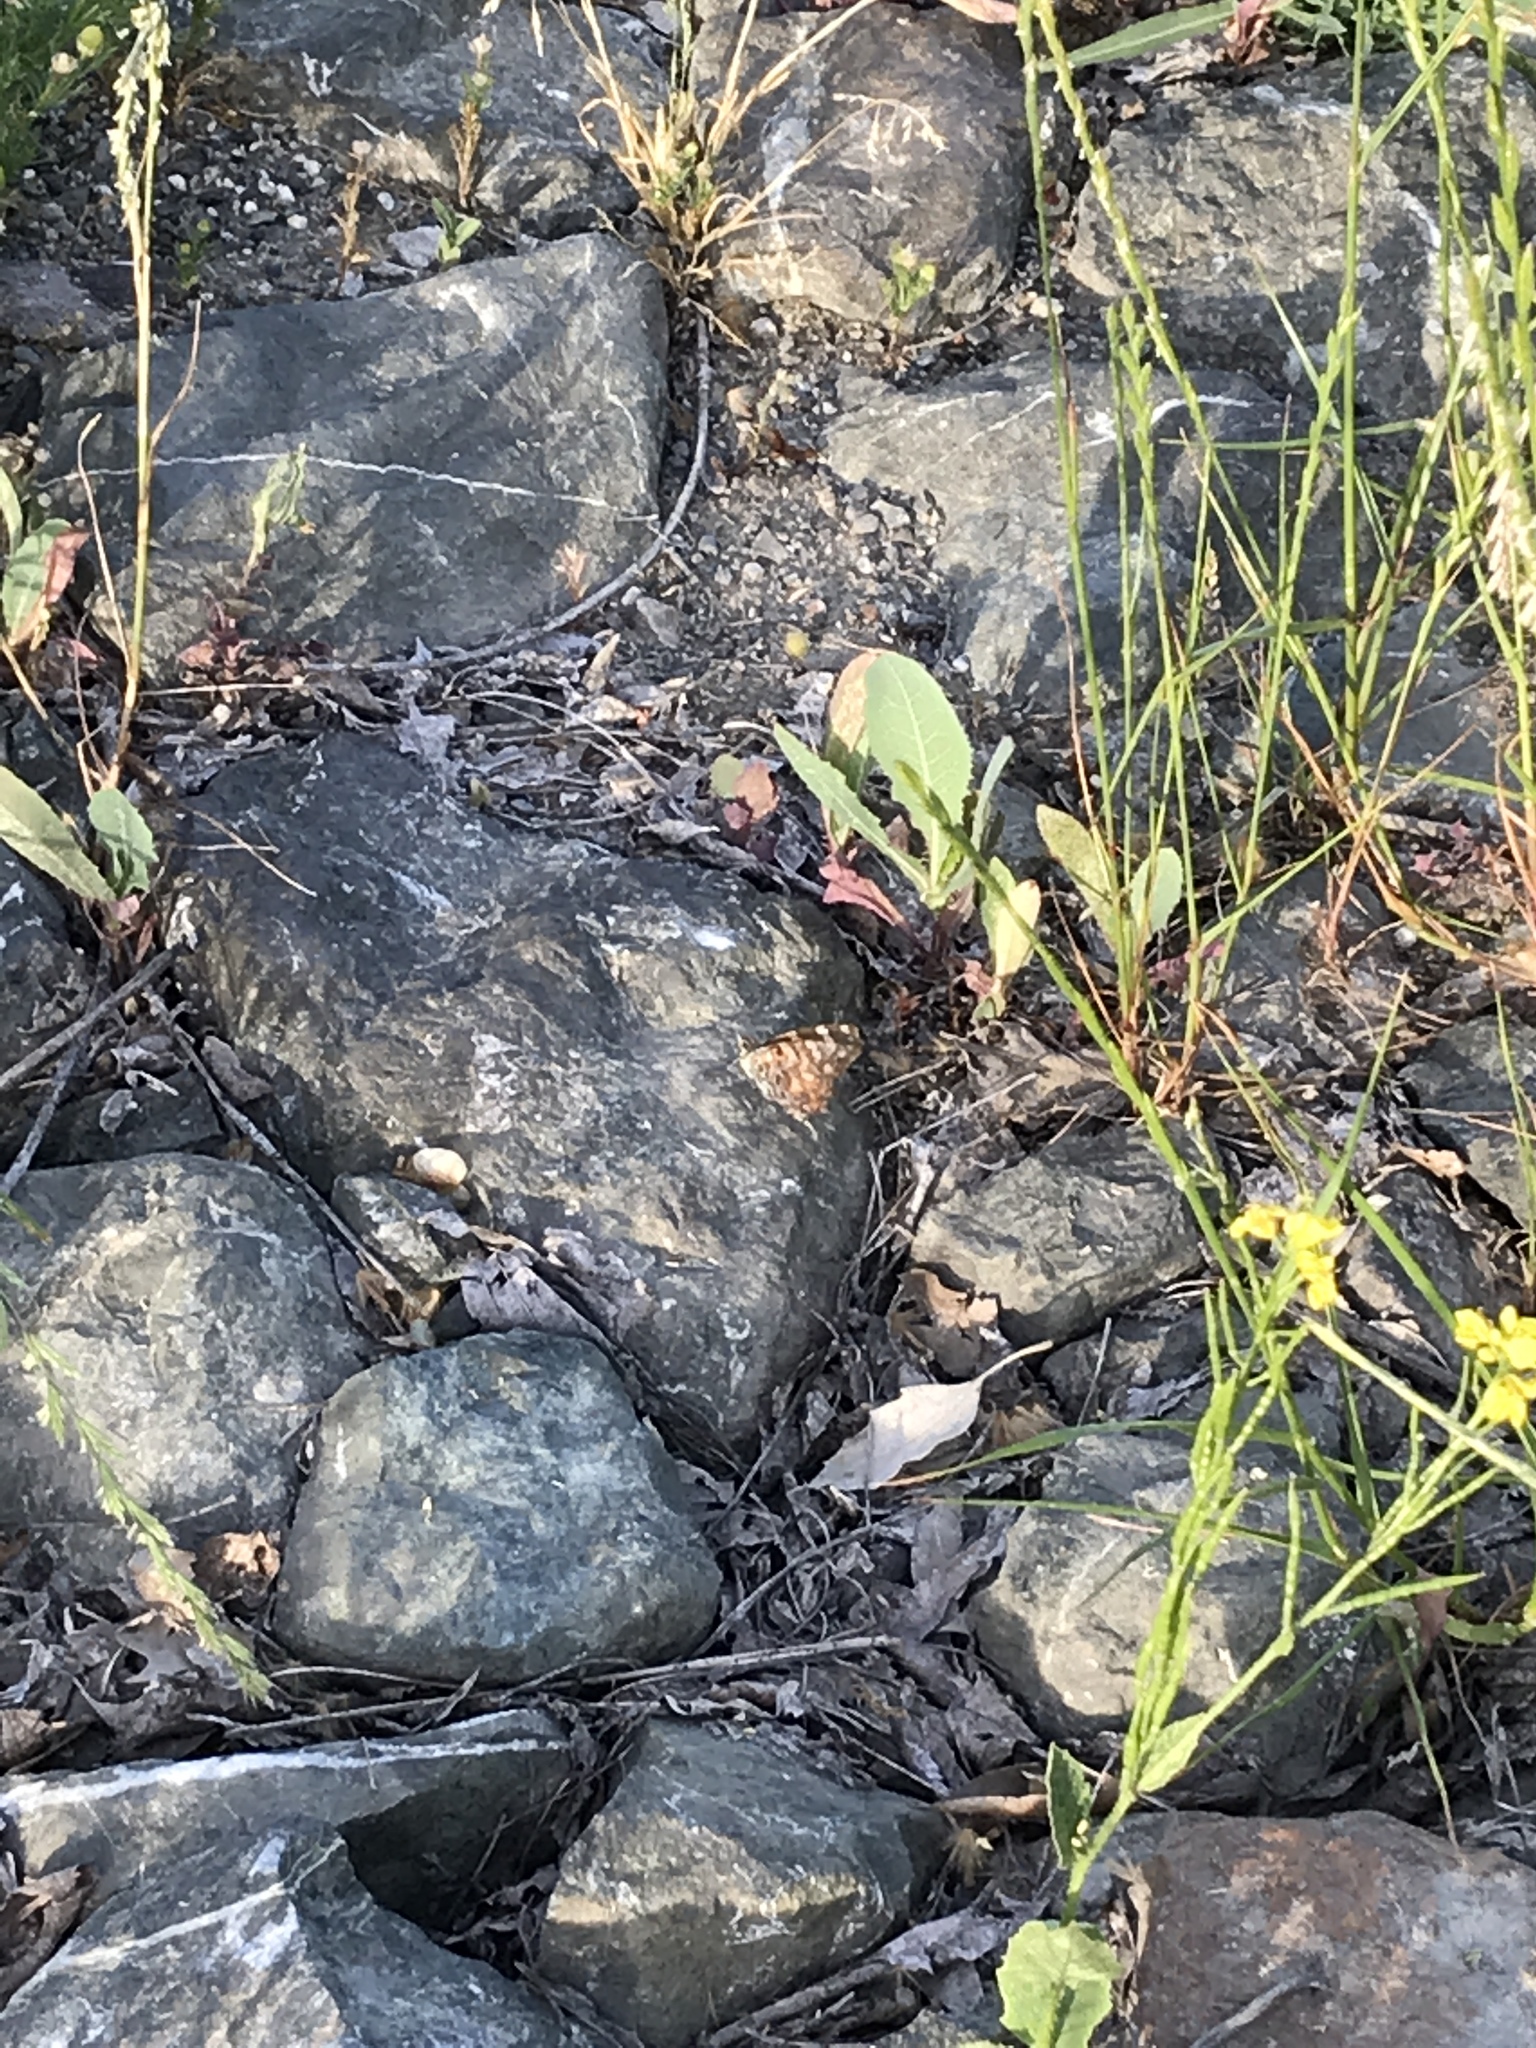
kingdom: Animalia
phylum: Arthropoda
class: Insecta
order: Lepidoptera
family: Nymphalidae
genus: Vanessa
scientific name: Vanessa cardui
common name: Painted lady
